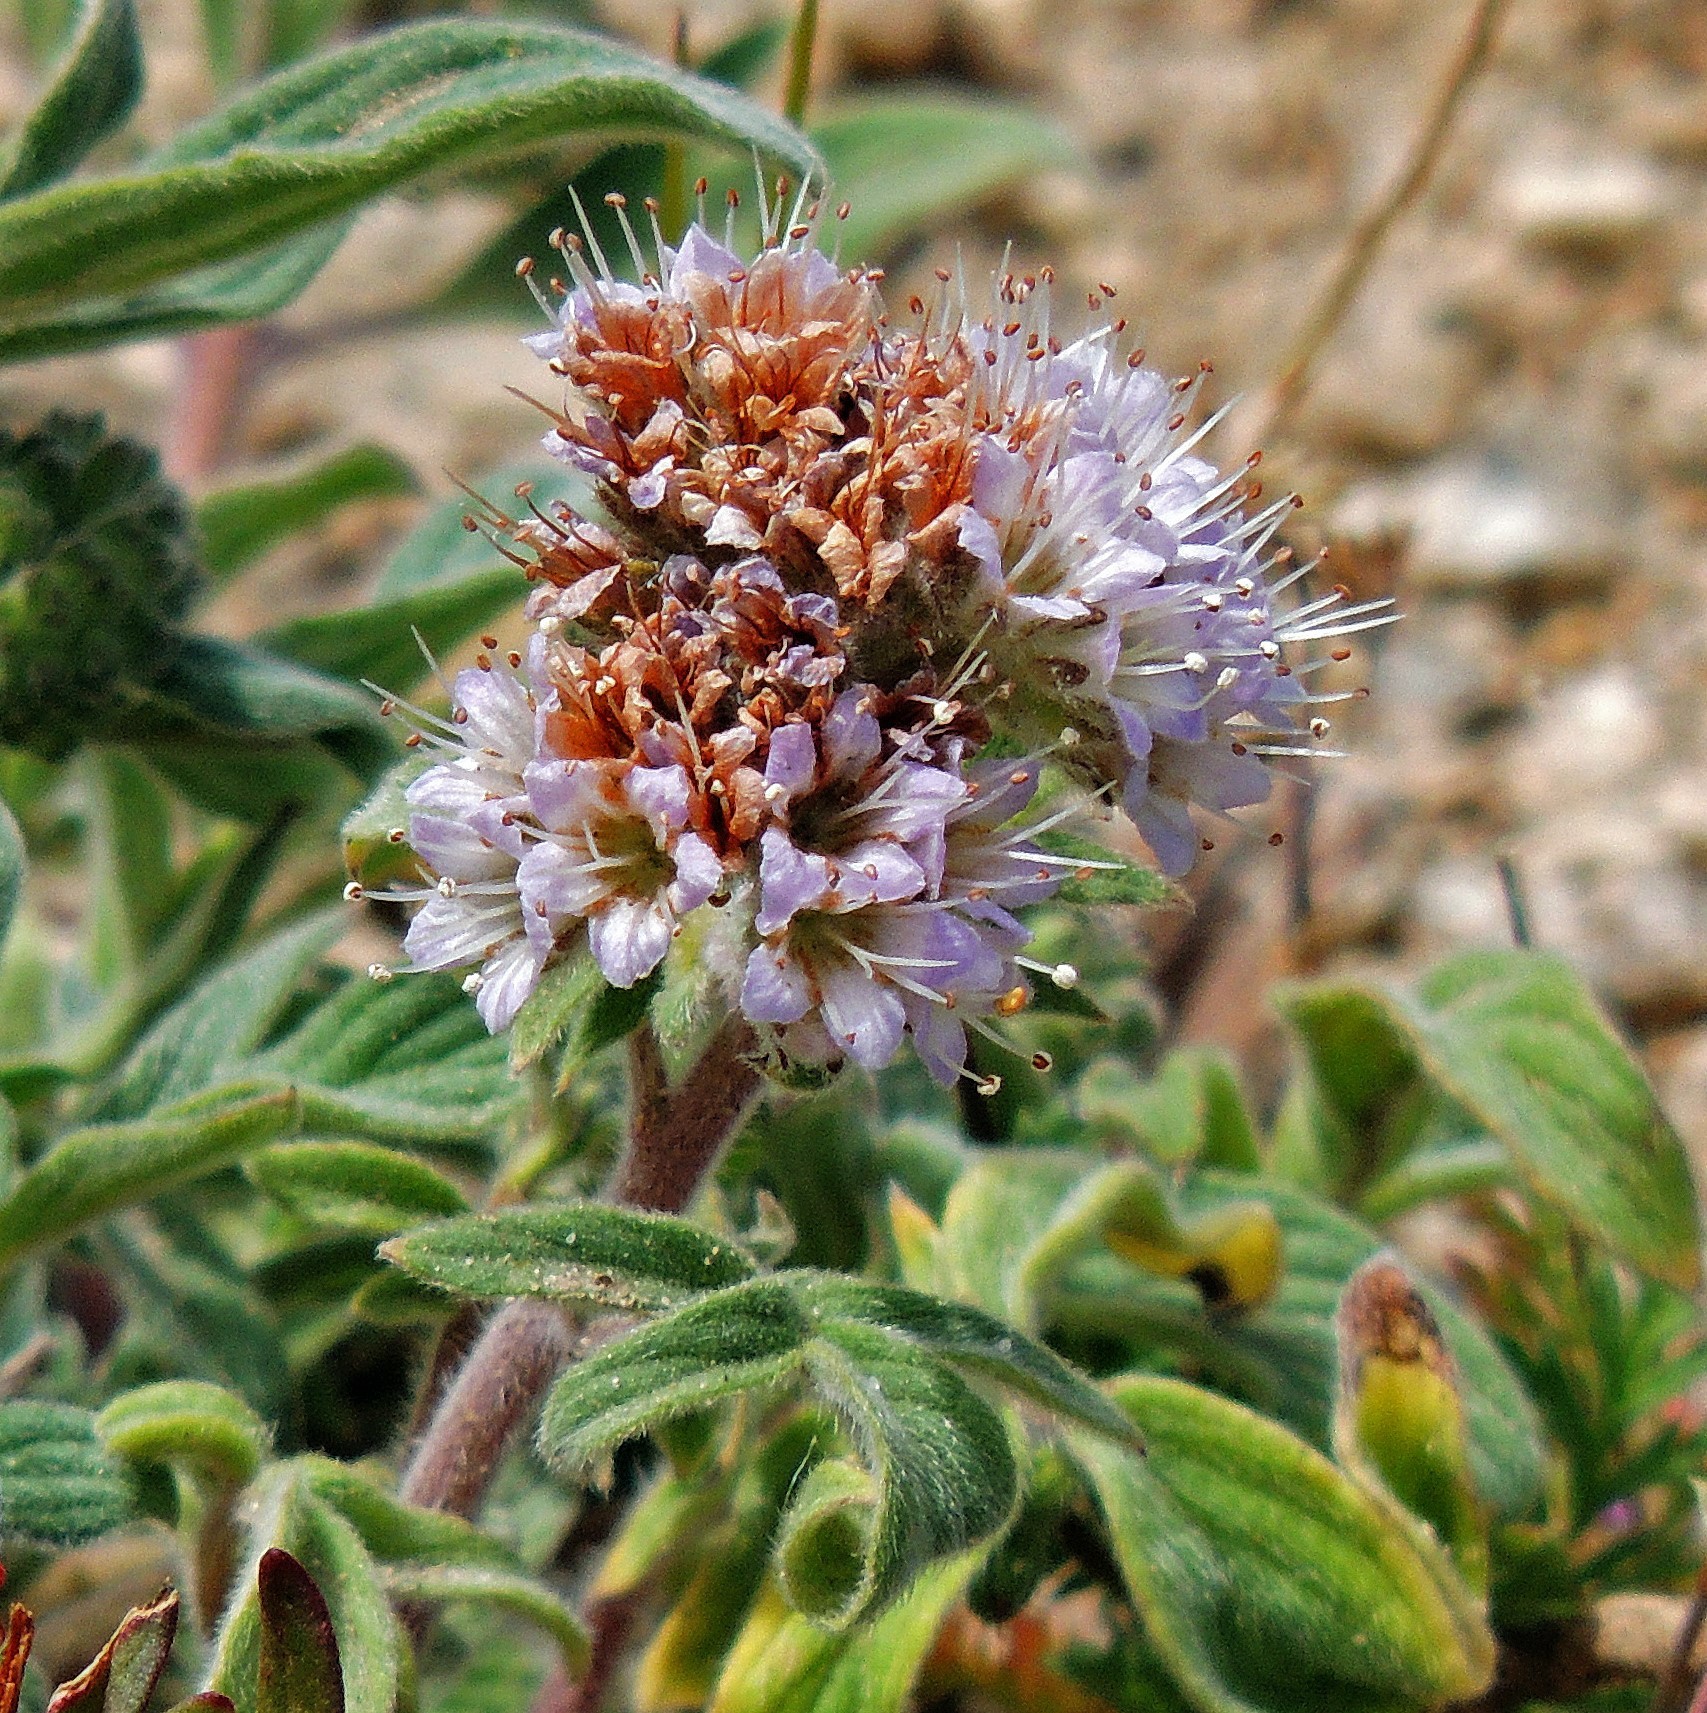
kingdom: Plantae
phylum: Tracheophyta
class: Magnoliopsida
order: Boraginales
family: Hydrophyllaceae
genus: Phacelia
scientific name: Phacelia secunda
